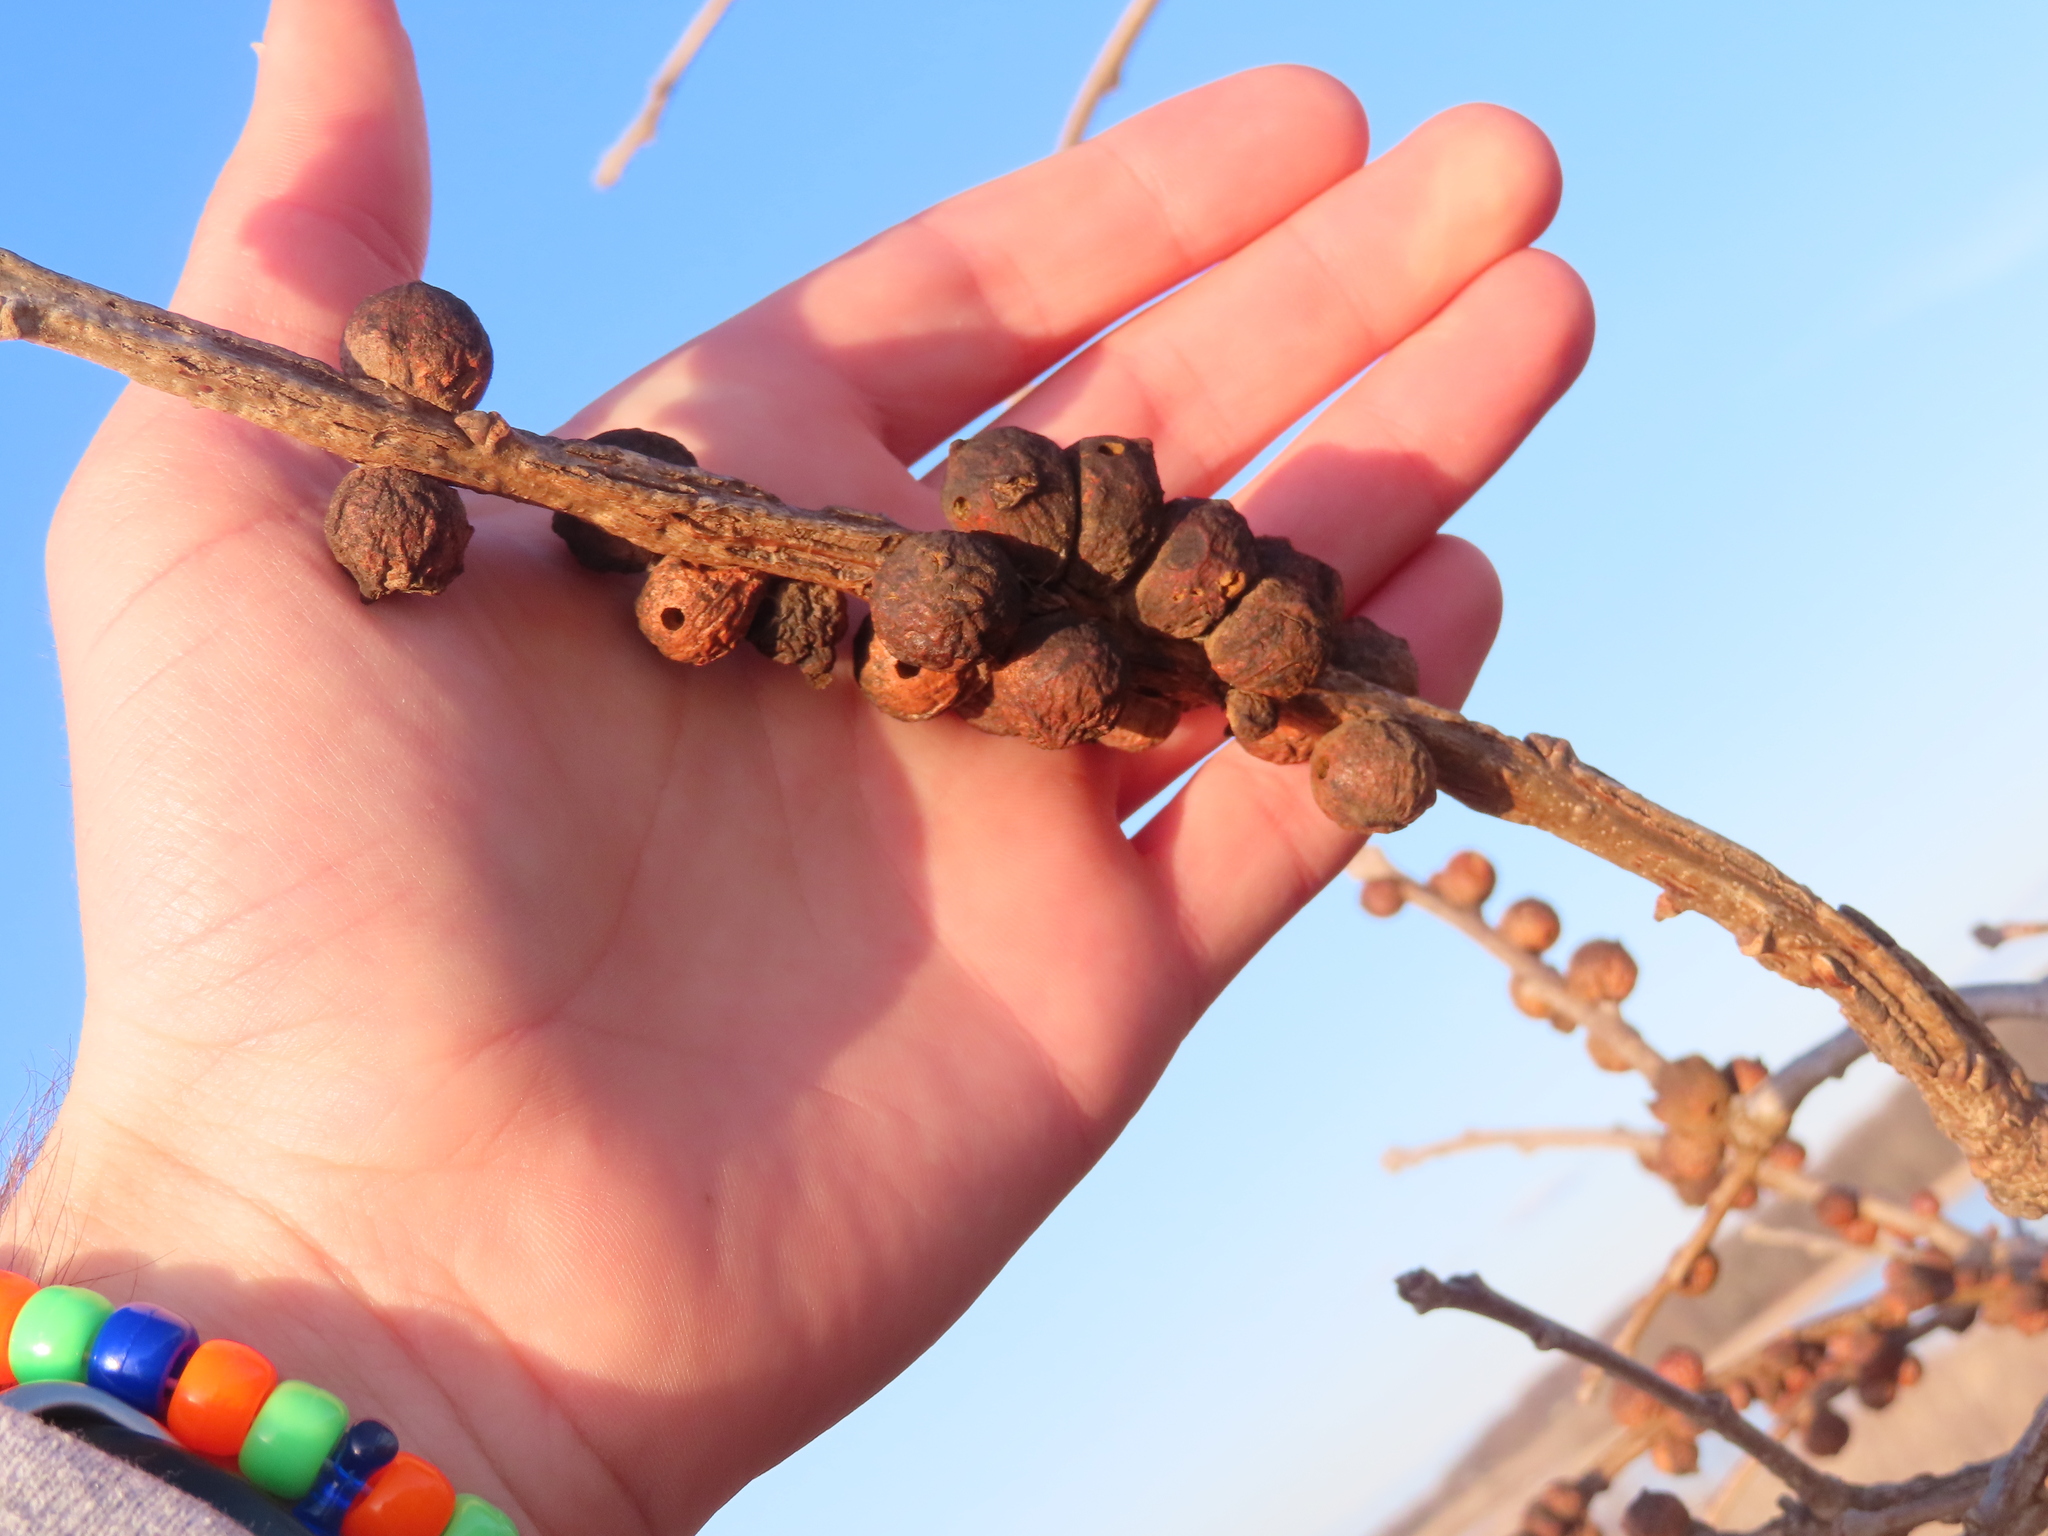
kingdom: Animalia
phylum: Arthropoda
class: Insecta
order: Hymenoptera
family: Cynipidae
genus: Disholcaspis
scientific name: Disholcaspis
